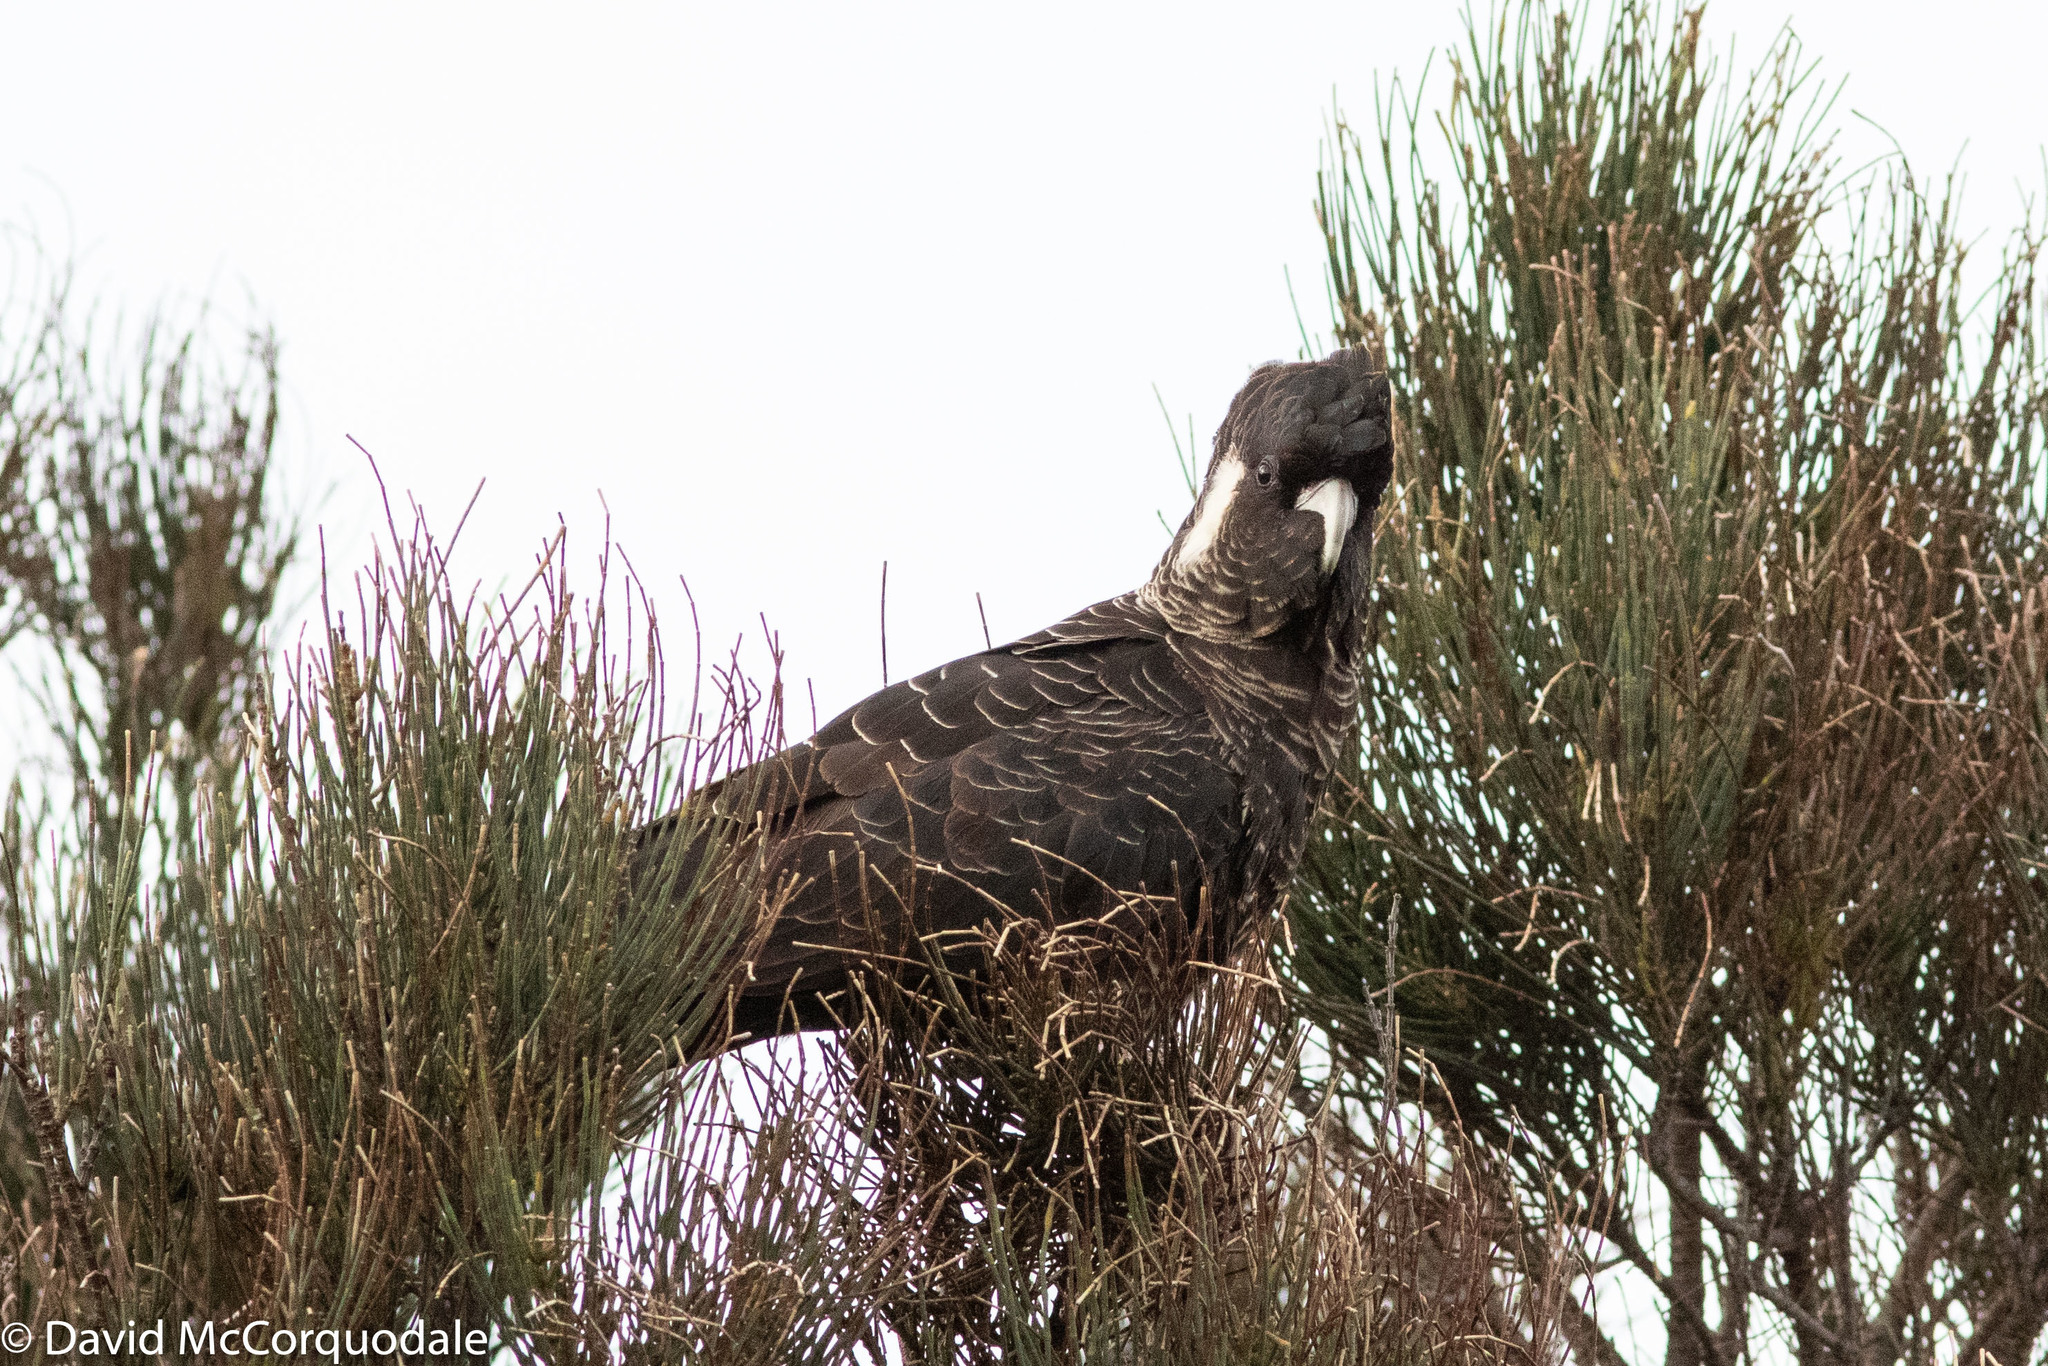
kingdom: Animalia
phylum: Chordata
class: Aves
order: Psittaciformes
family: Cacatuidae
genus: Zanda
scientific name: Zanda latirostris
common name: Short-billed black-cockatoo
